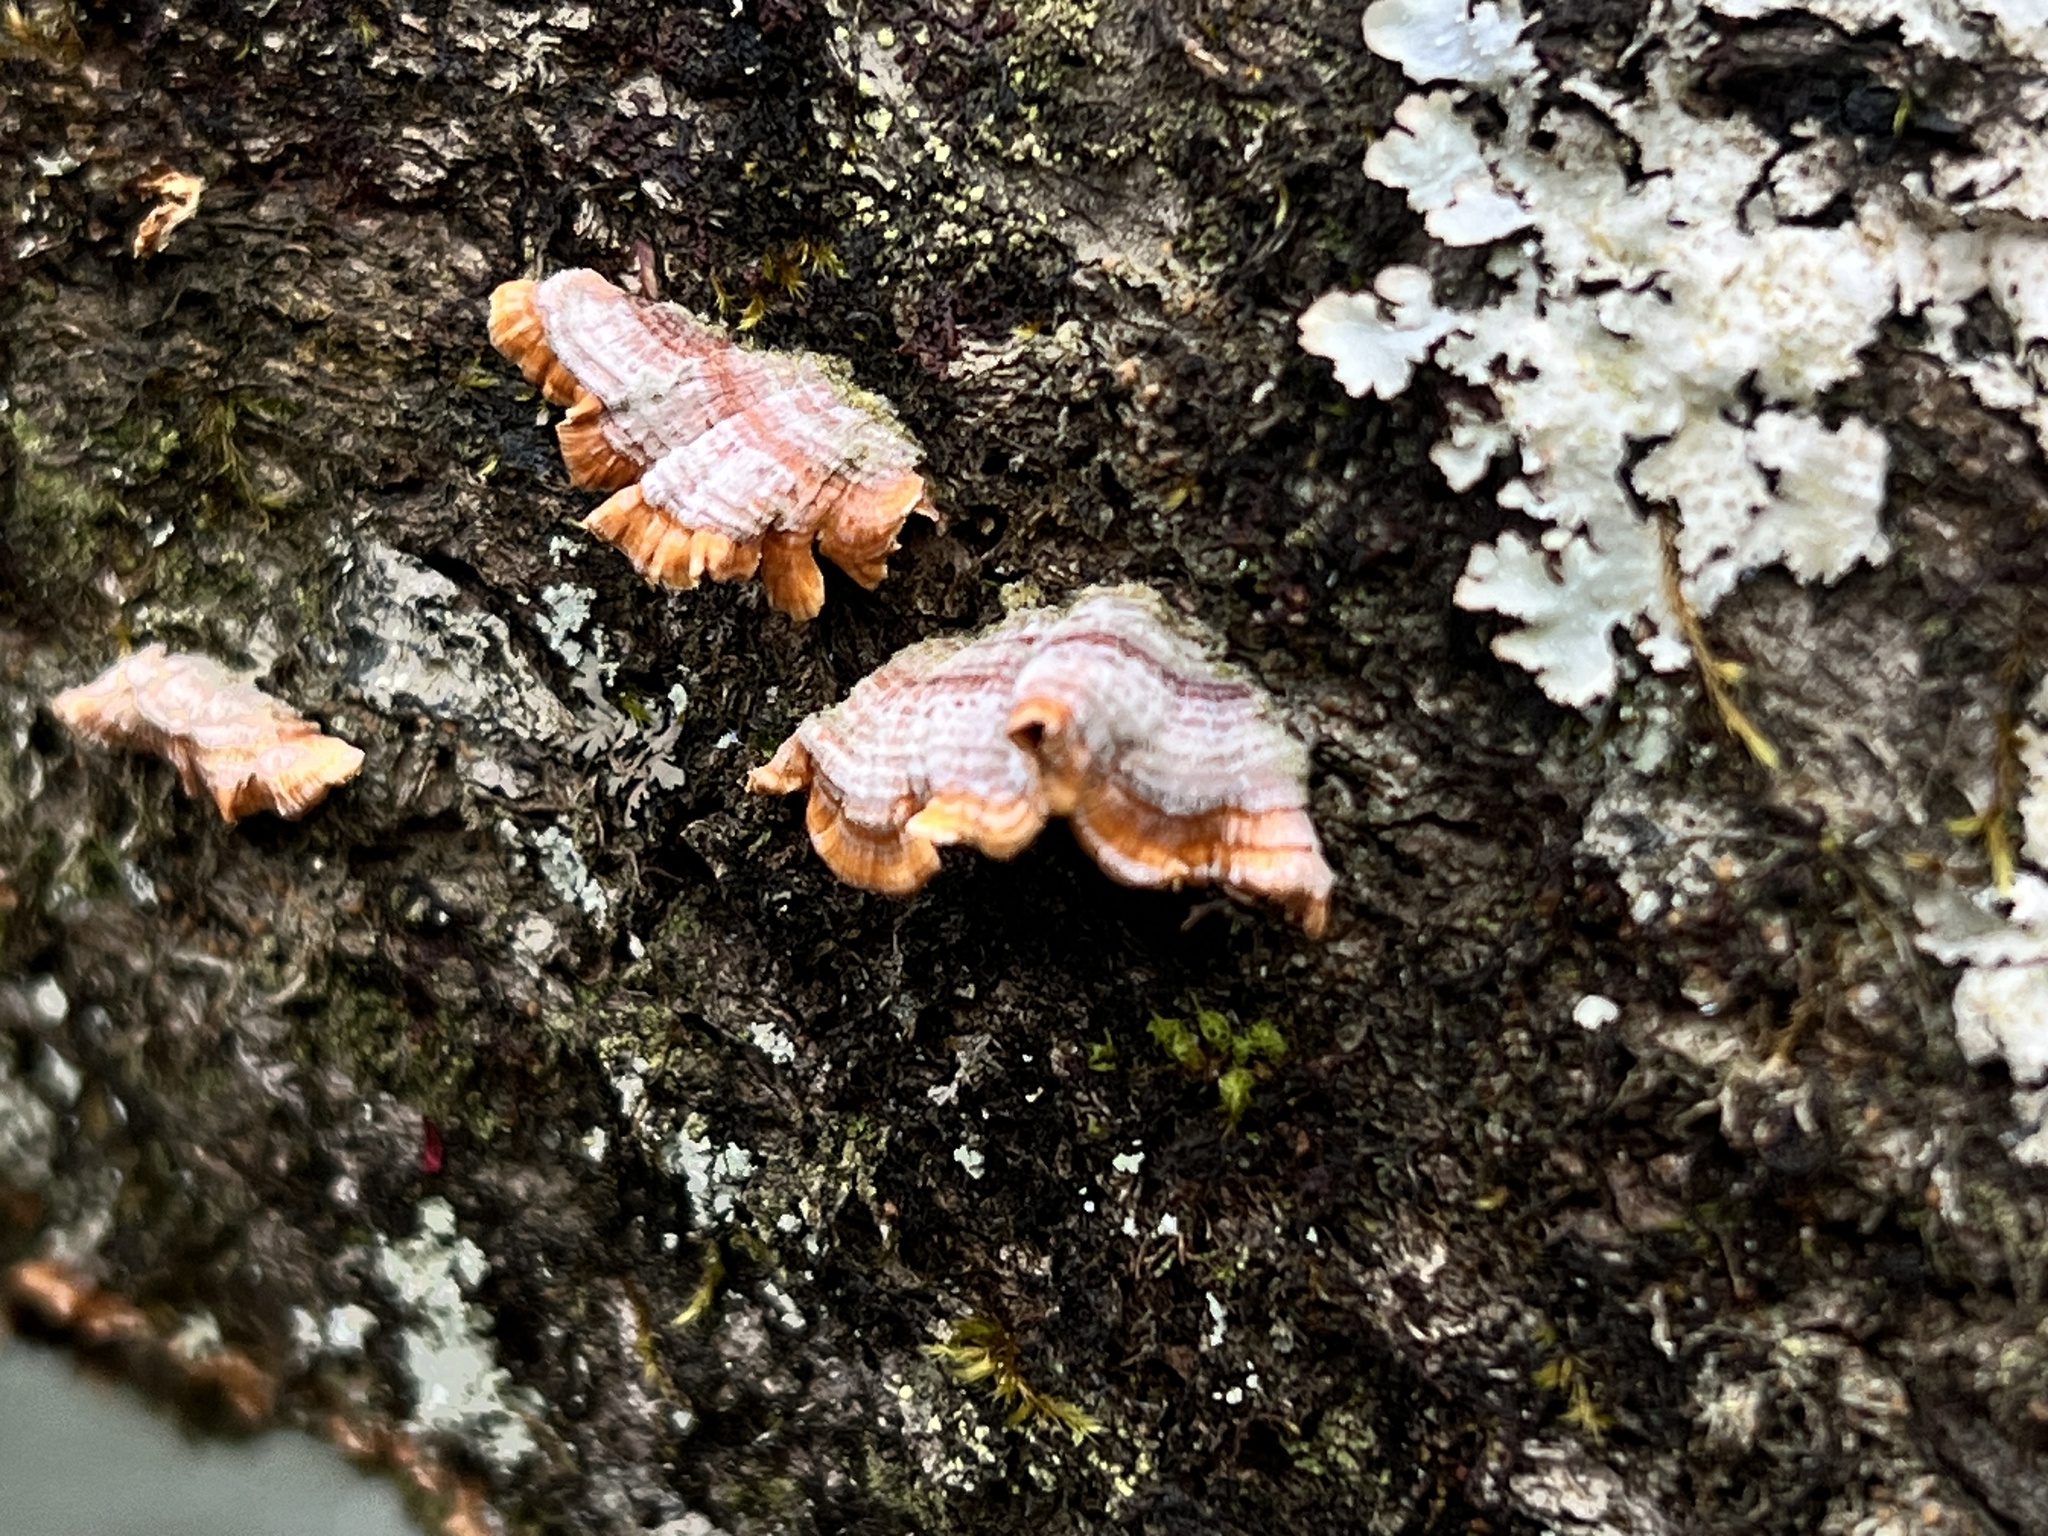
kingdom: Fungi
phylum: Basidiomycota
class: Agaricomycetes
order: Russulales
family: Stereaceae
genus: Stereum
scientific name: Stereum complicatum
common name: Crowded parchment
